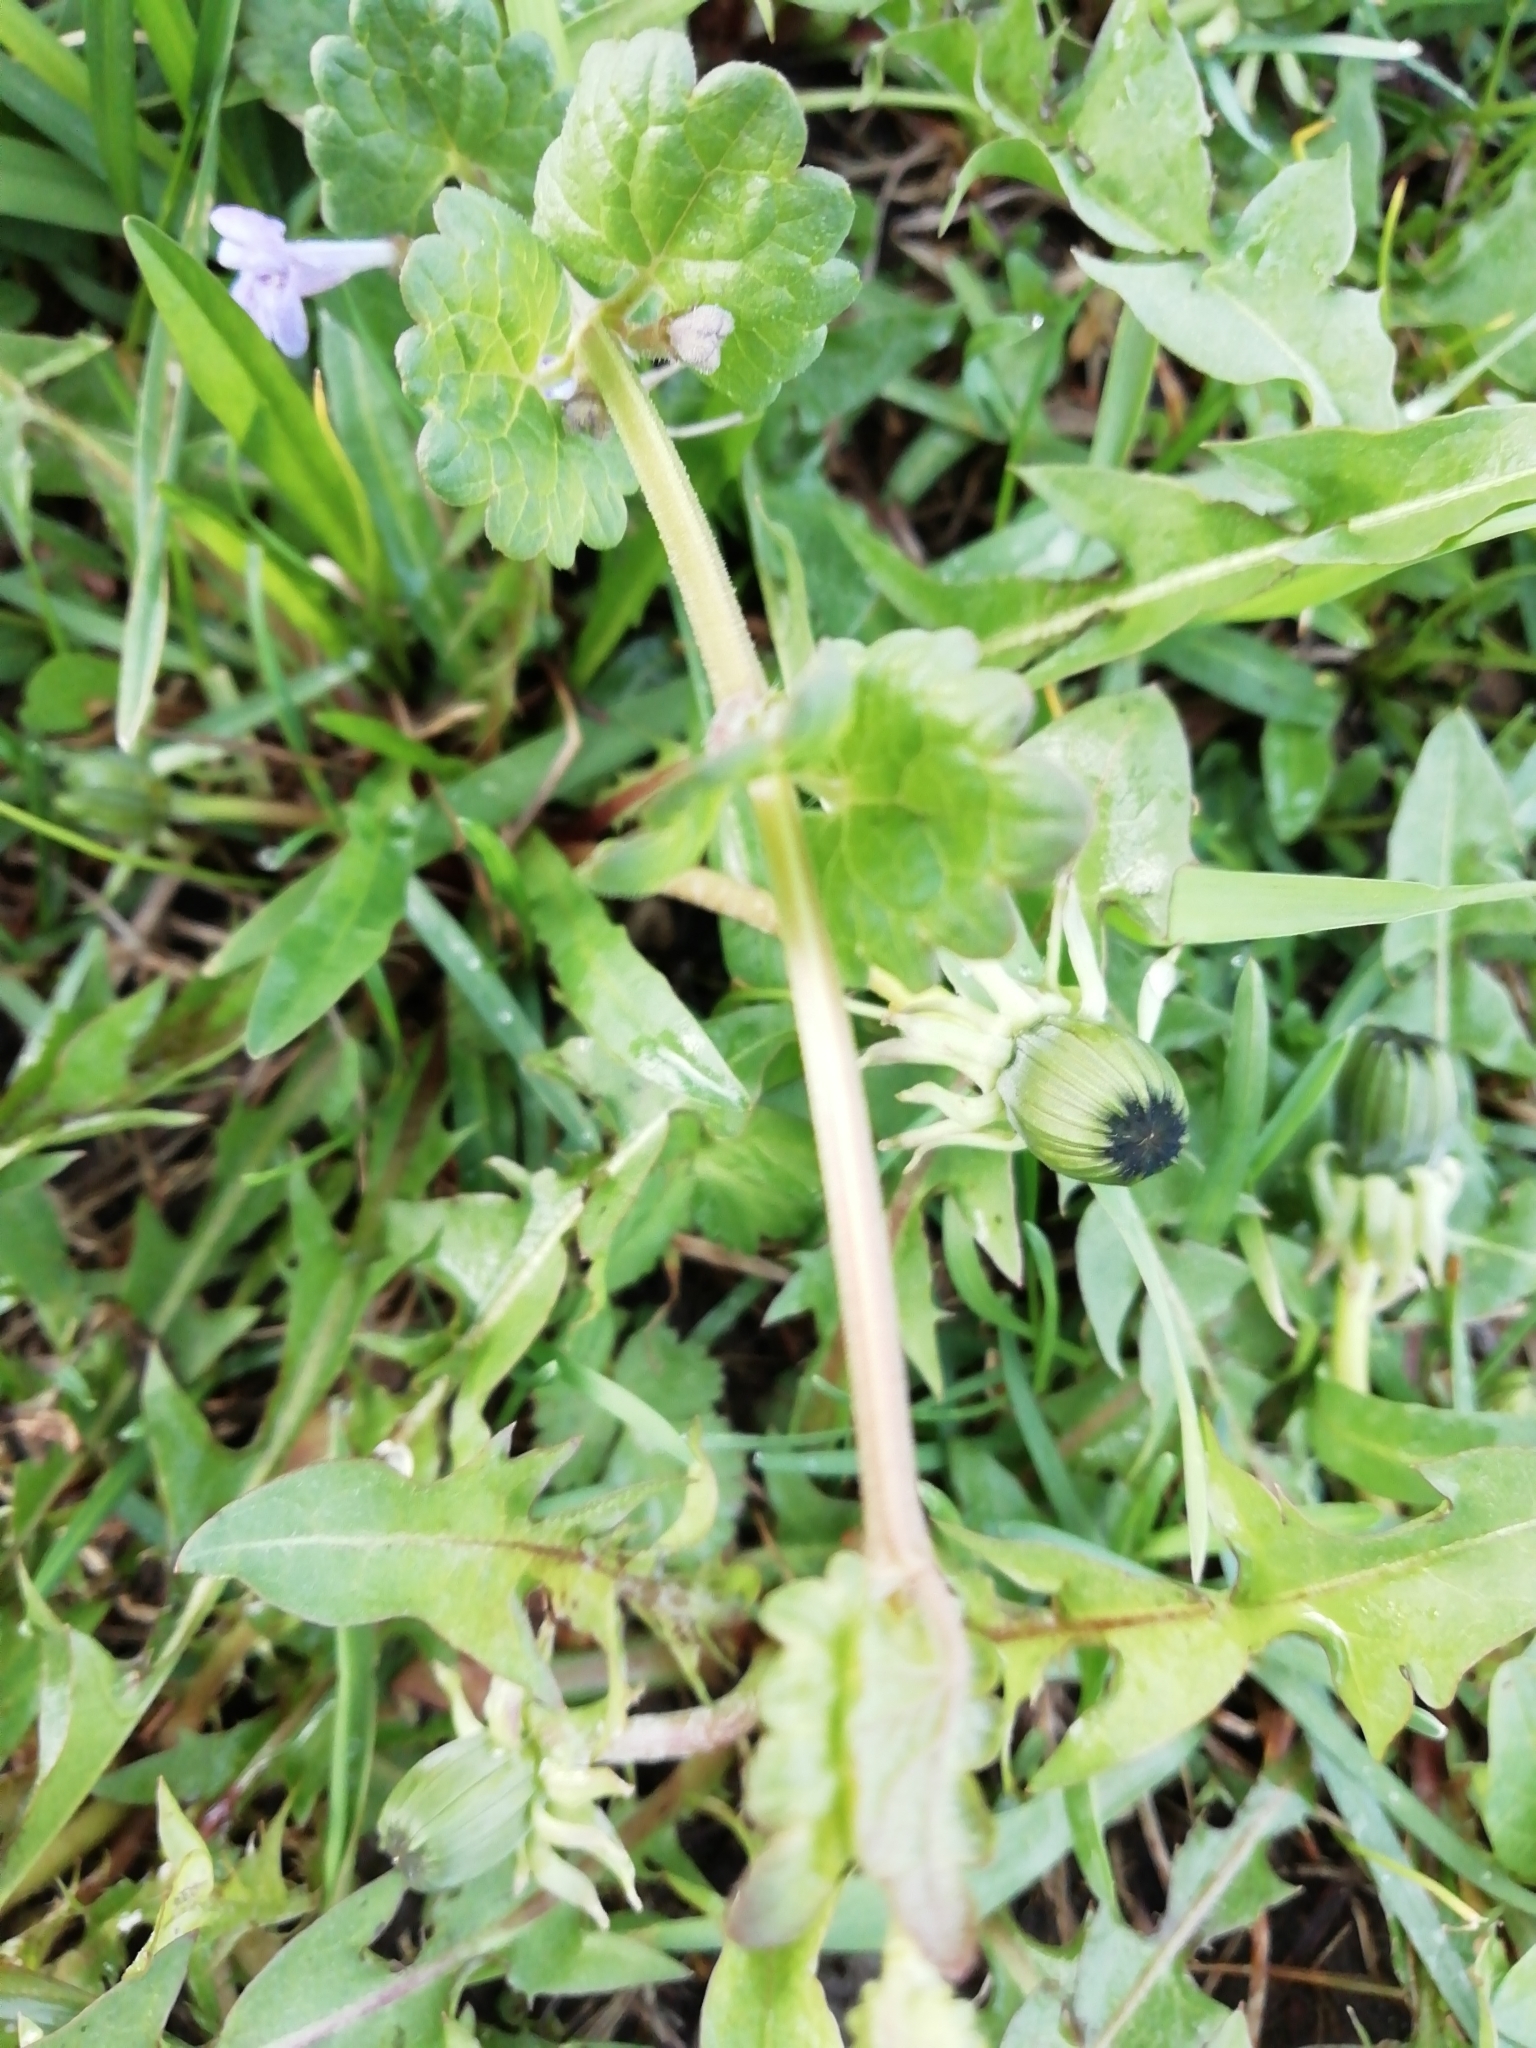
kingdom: Plantae
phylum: Tracheophyta
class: Magnoliopsida
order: Lamiales
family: Lamiaceae
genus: Glechoma
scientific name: Glechoma hederacea
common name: Ground ivy
